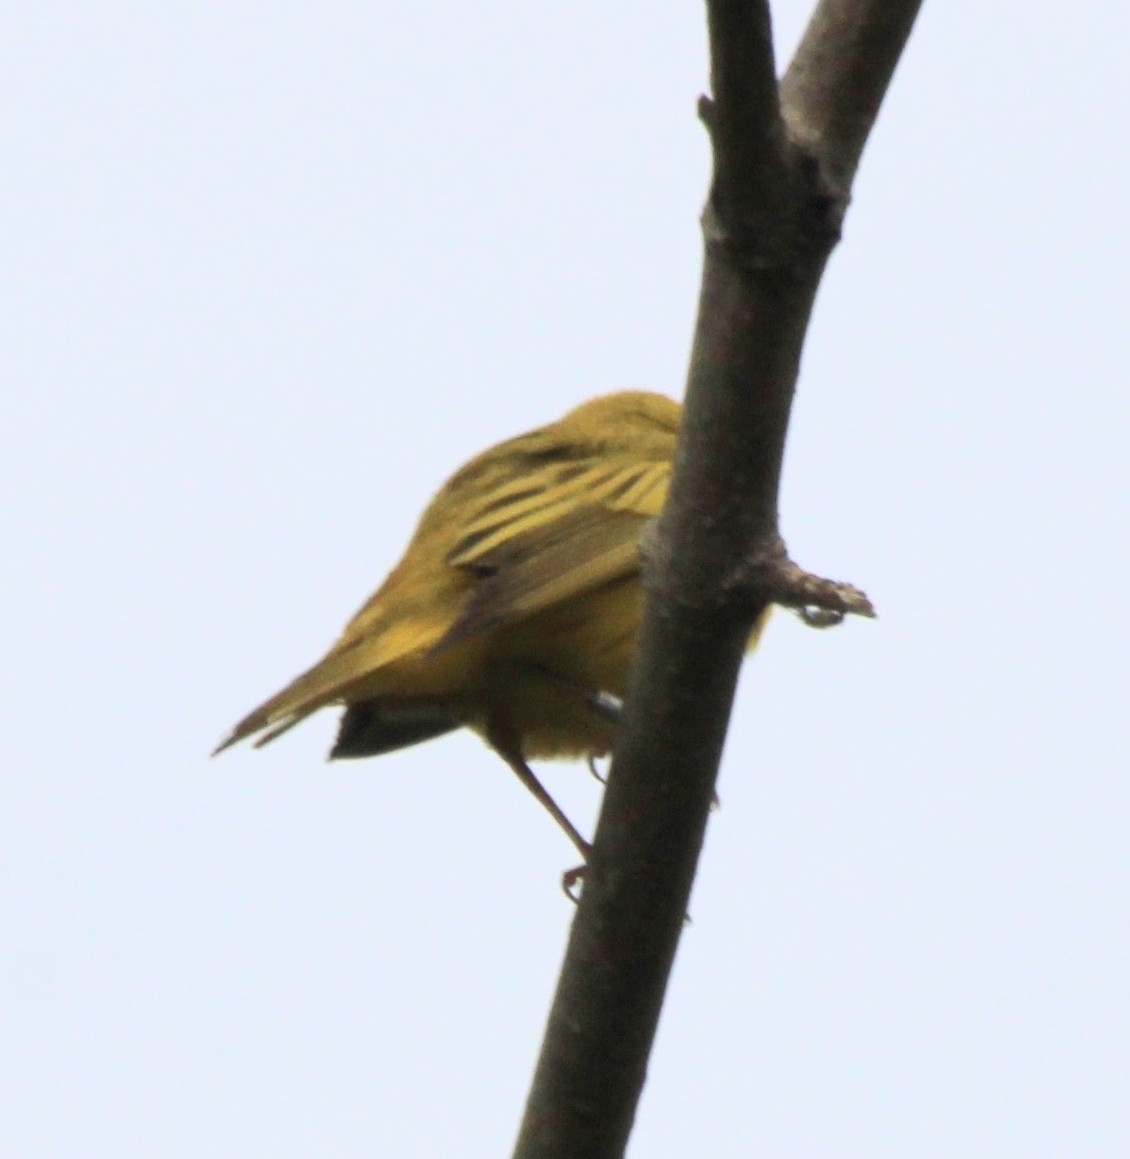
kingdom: Animalia
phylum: Chordata
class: Aves
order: Passeriformes
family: Parulidae
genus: Setophaga
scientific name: Setophaga petechia
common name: Yellow warbler
